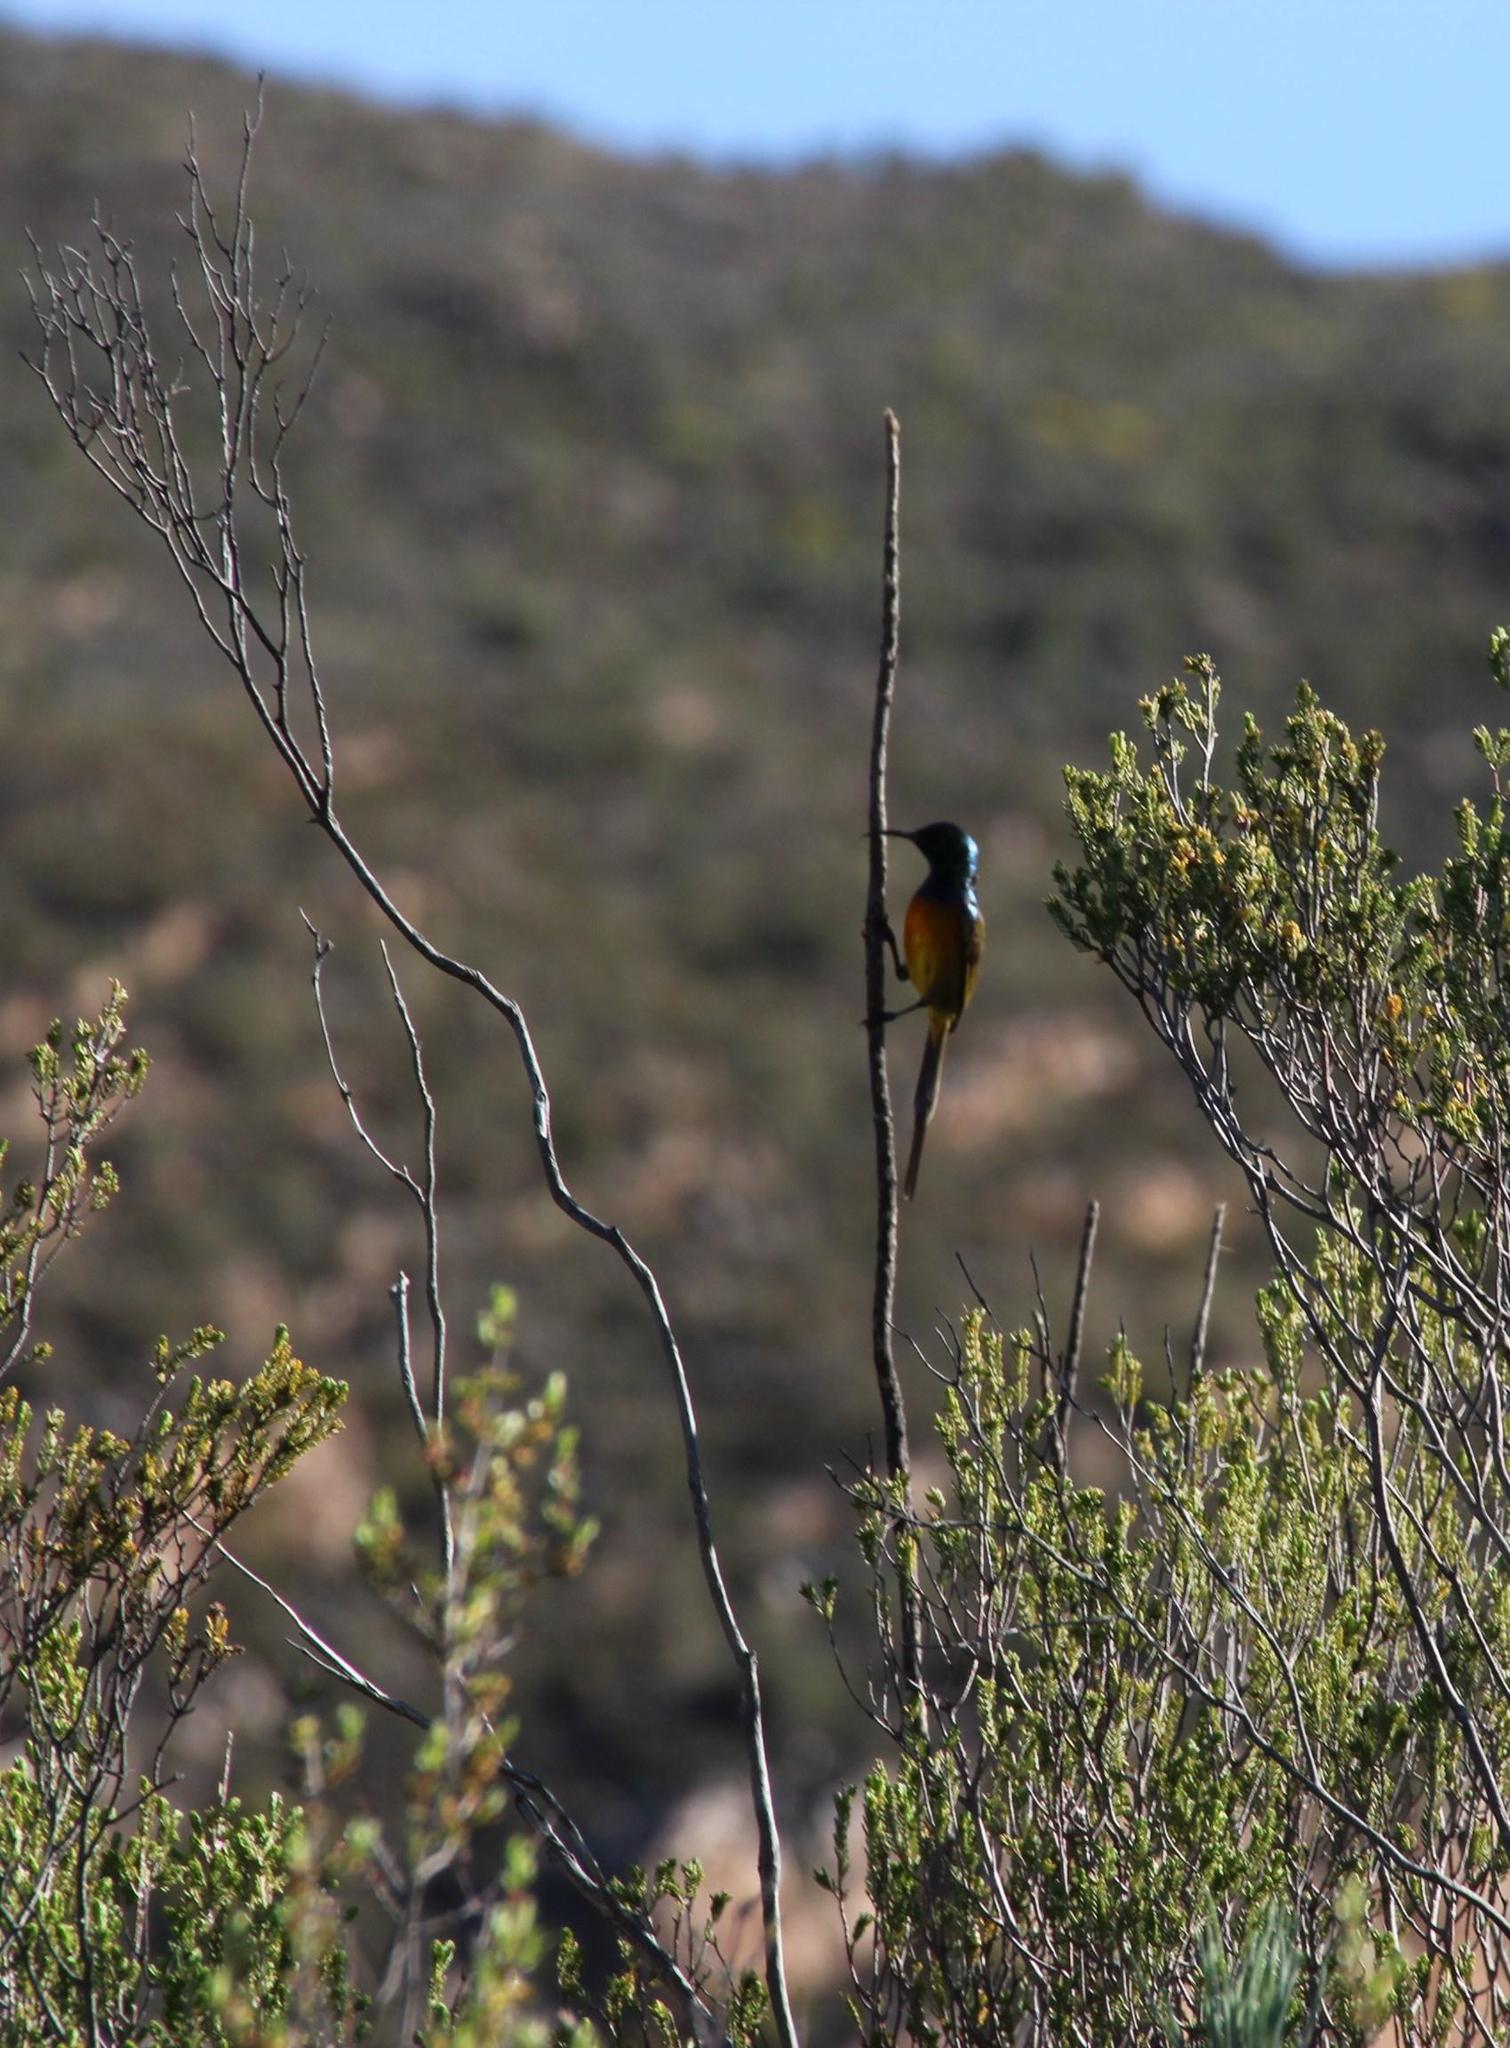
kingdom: Animalia
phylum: Chordata
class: Aves
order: Passeriformes
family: Nectariniidae
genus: Anthobaphes
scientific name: Anthobaphes violacea
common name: Orange-breasted sunbird
